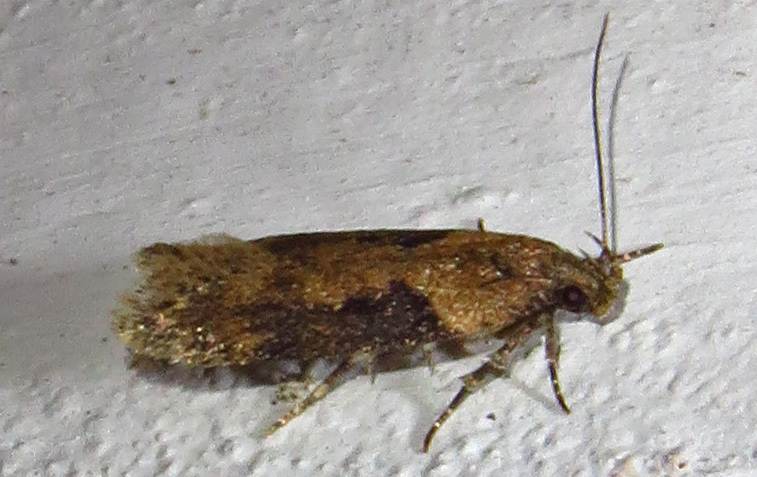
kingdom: Animalia
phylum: Arthropoda
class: Insecta
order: Lepidoptera
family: Gelechiidae
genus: Chionodes
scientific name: Chionodes mediofuscella
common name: Black-smudged chionodes moth
